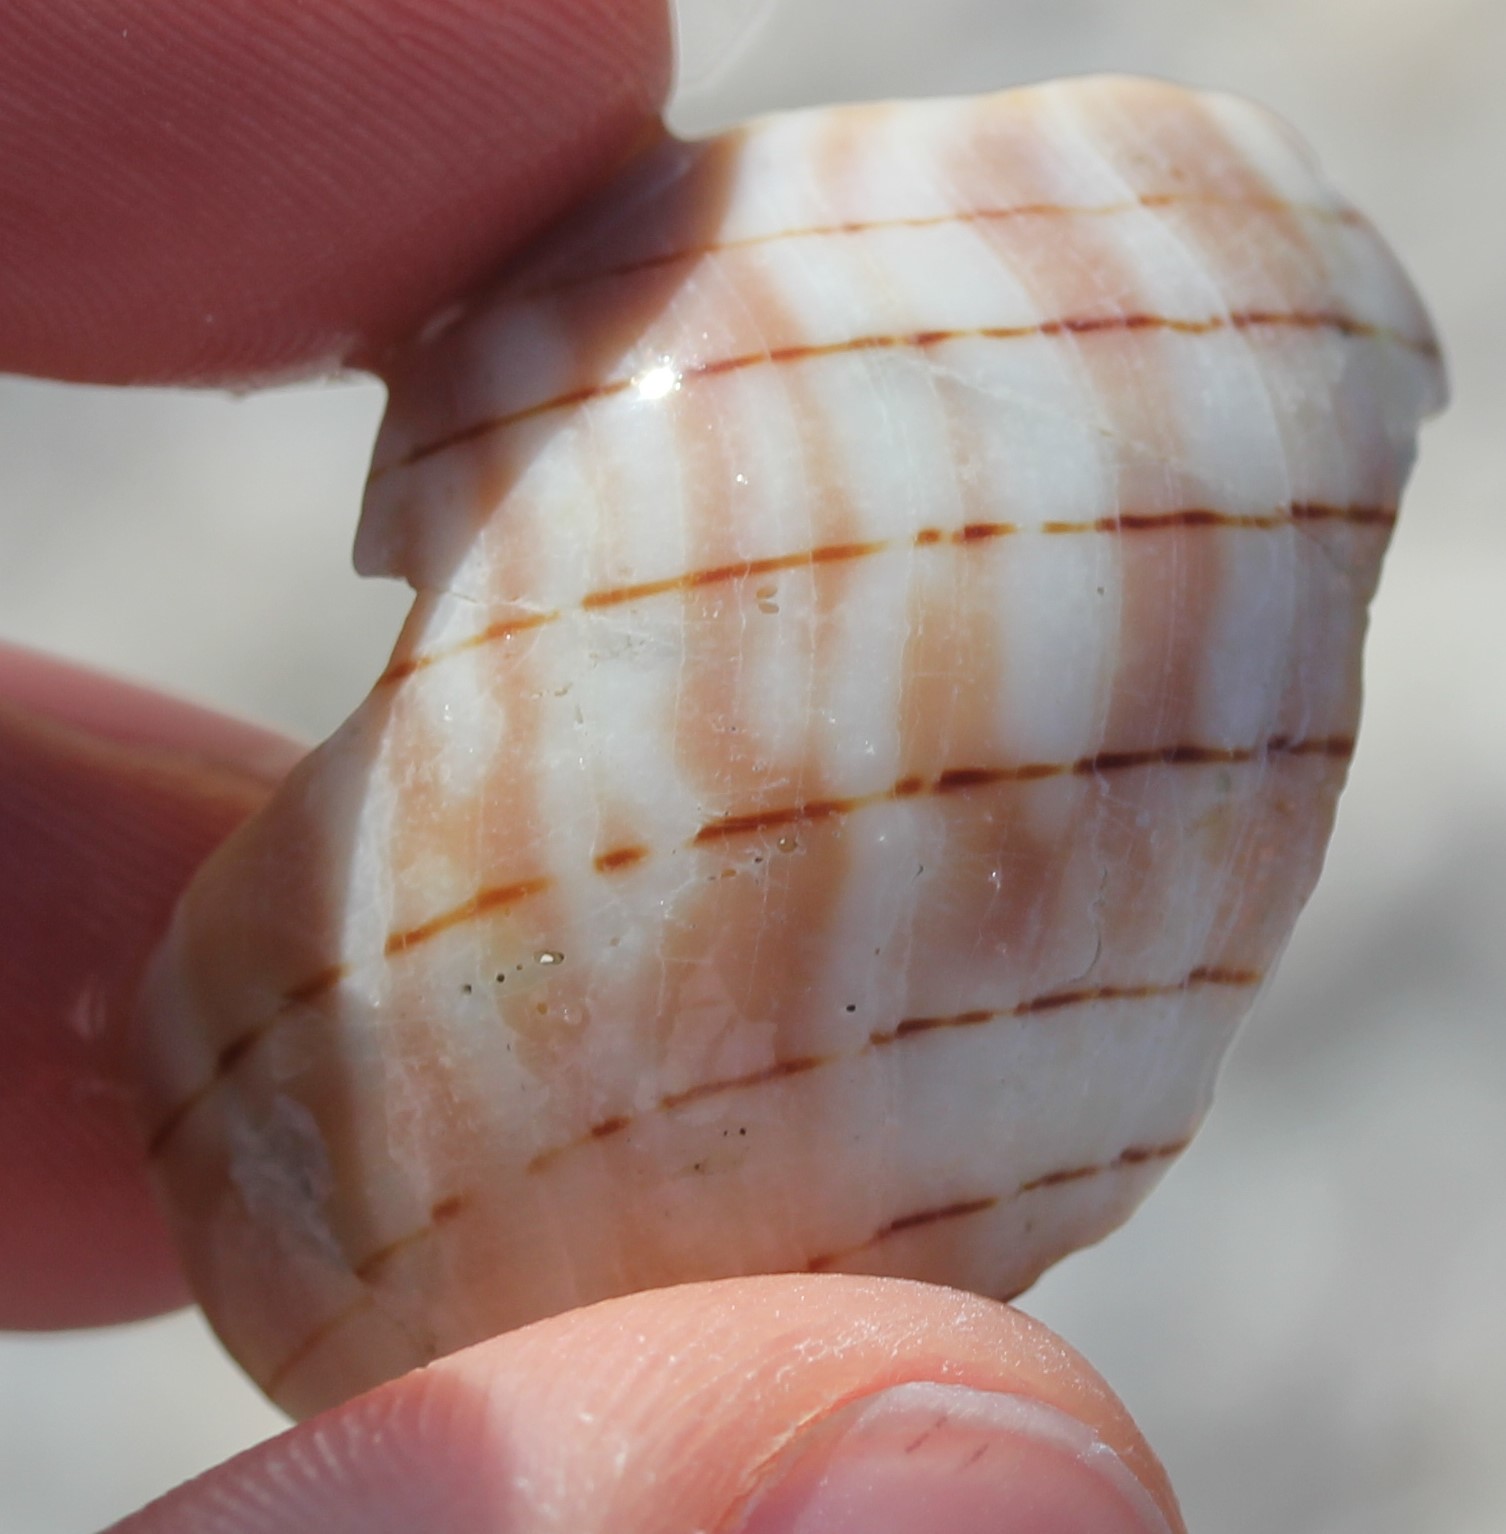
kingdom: Animalia
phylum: Mollusca
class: Gastropoda
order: Neogastropoda
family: Fasciolariidae
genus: Cinctura
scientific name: Cinctura hunteria
